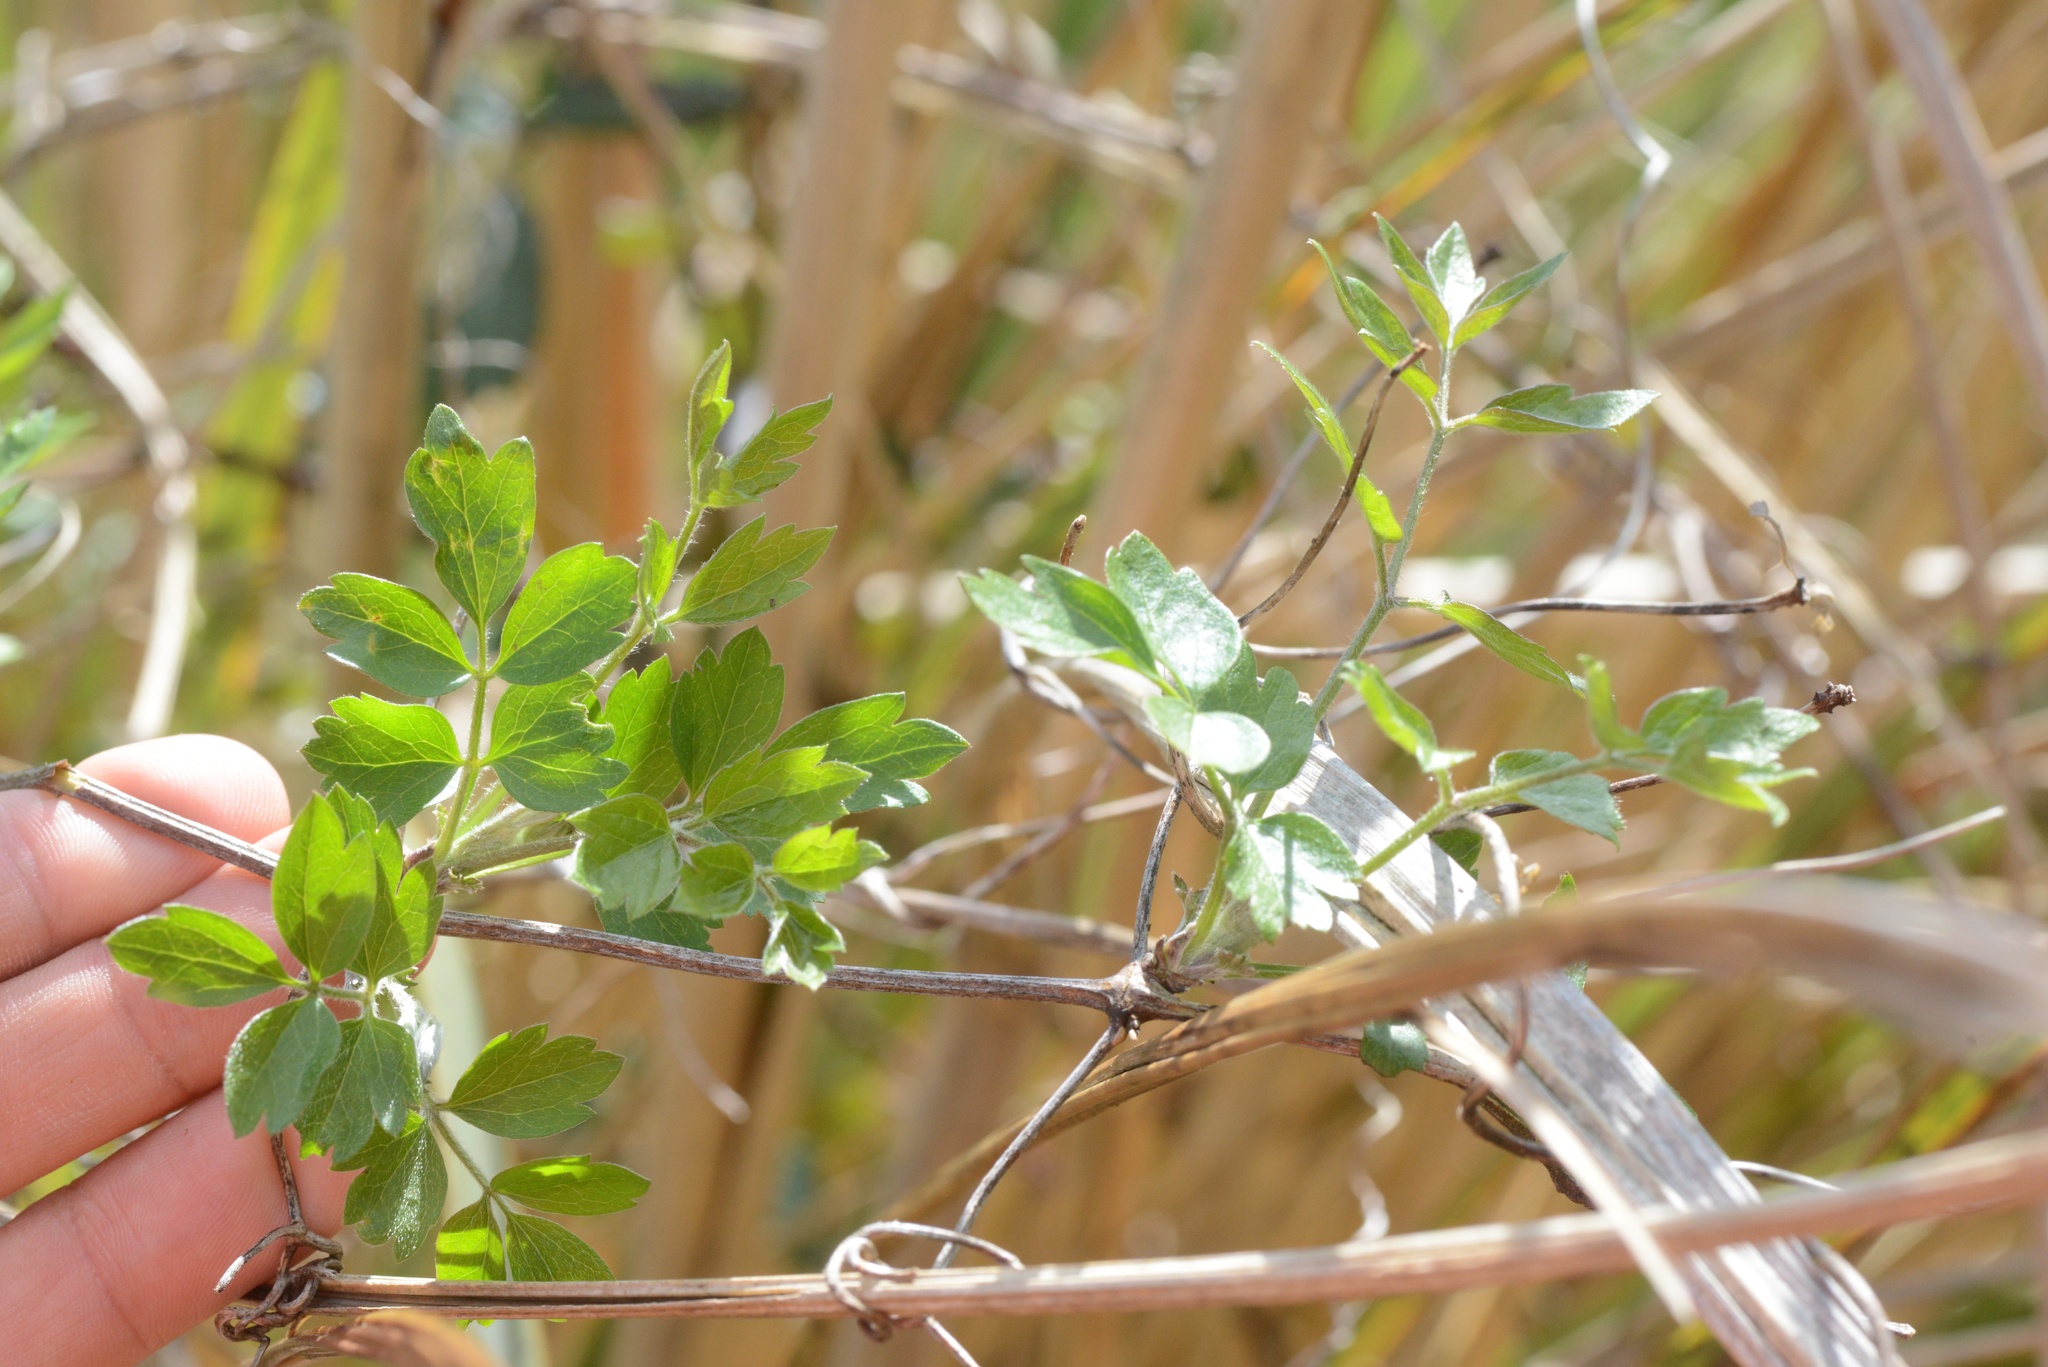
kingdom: Plantae
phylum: Tracheophyta
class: Magnoliopsida
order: Ranunculales
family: Ranunculaceae
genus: Clematis
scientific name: Clematis vitalba
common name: Evergreen clematis
